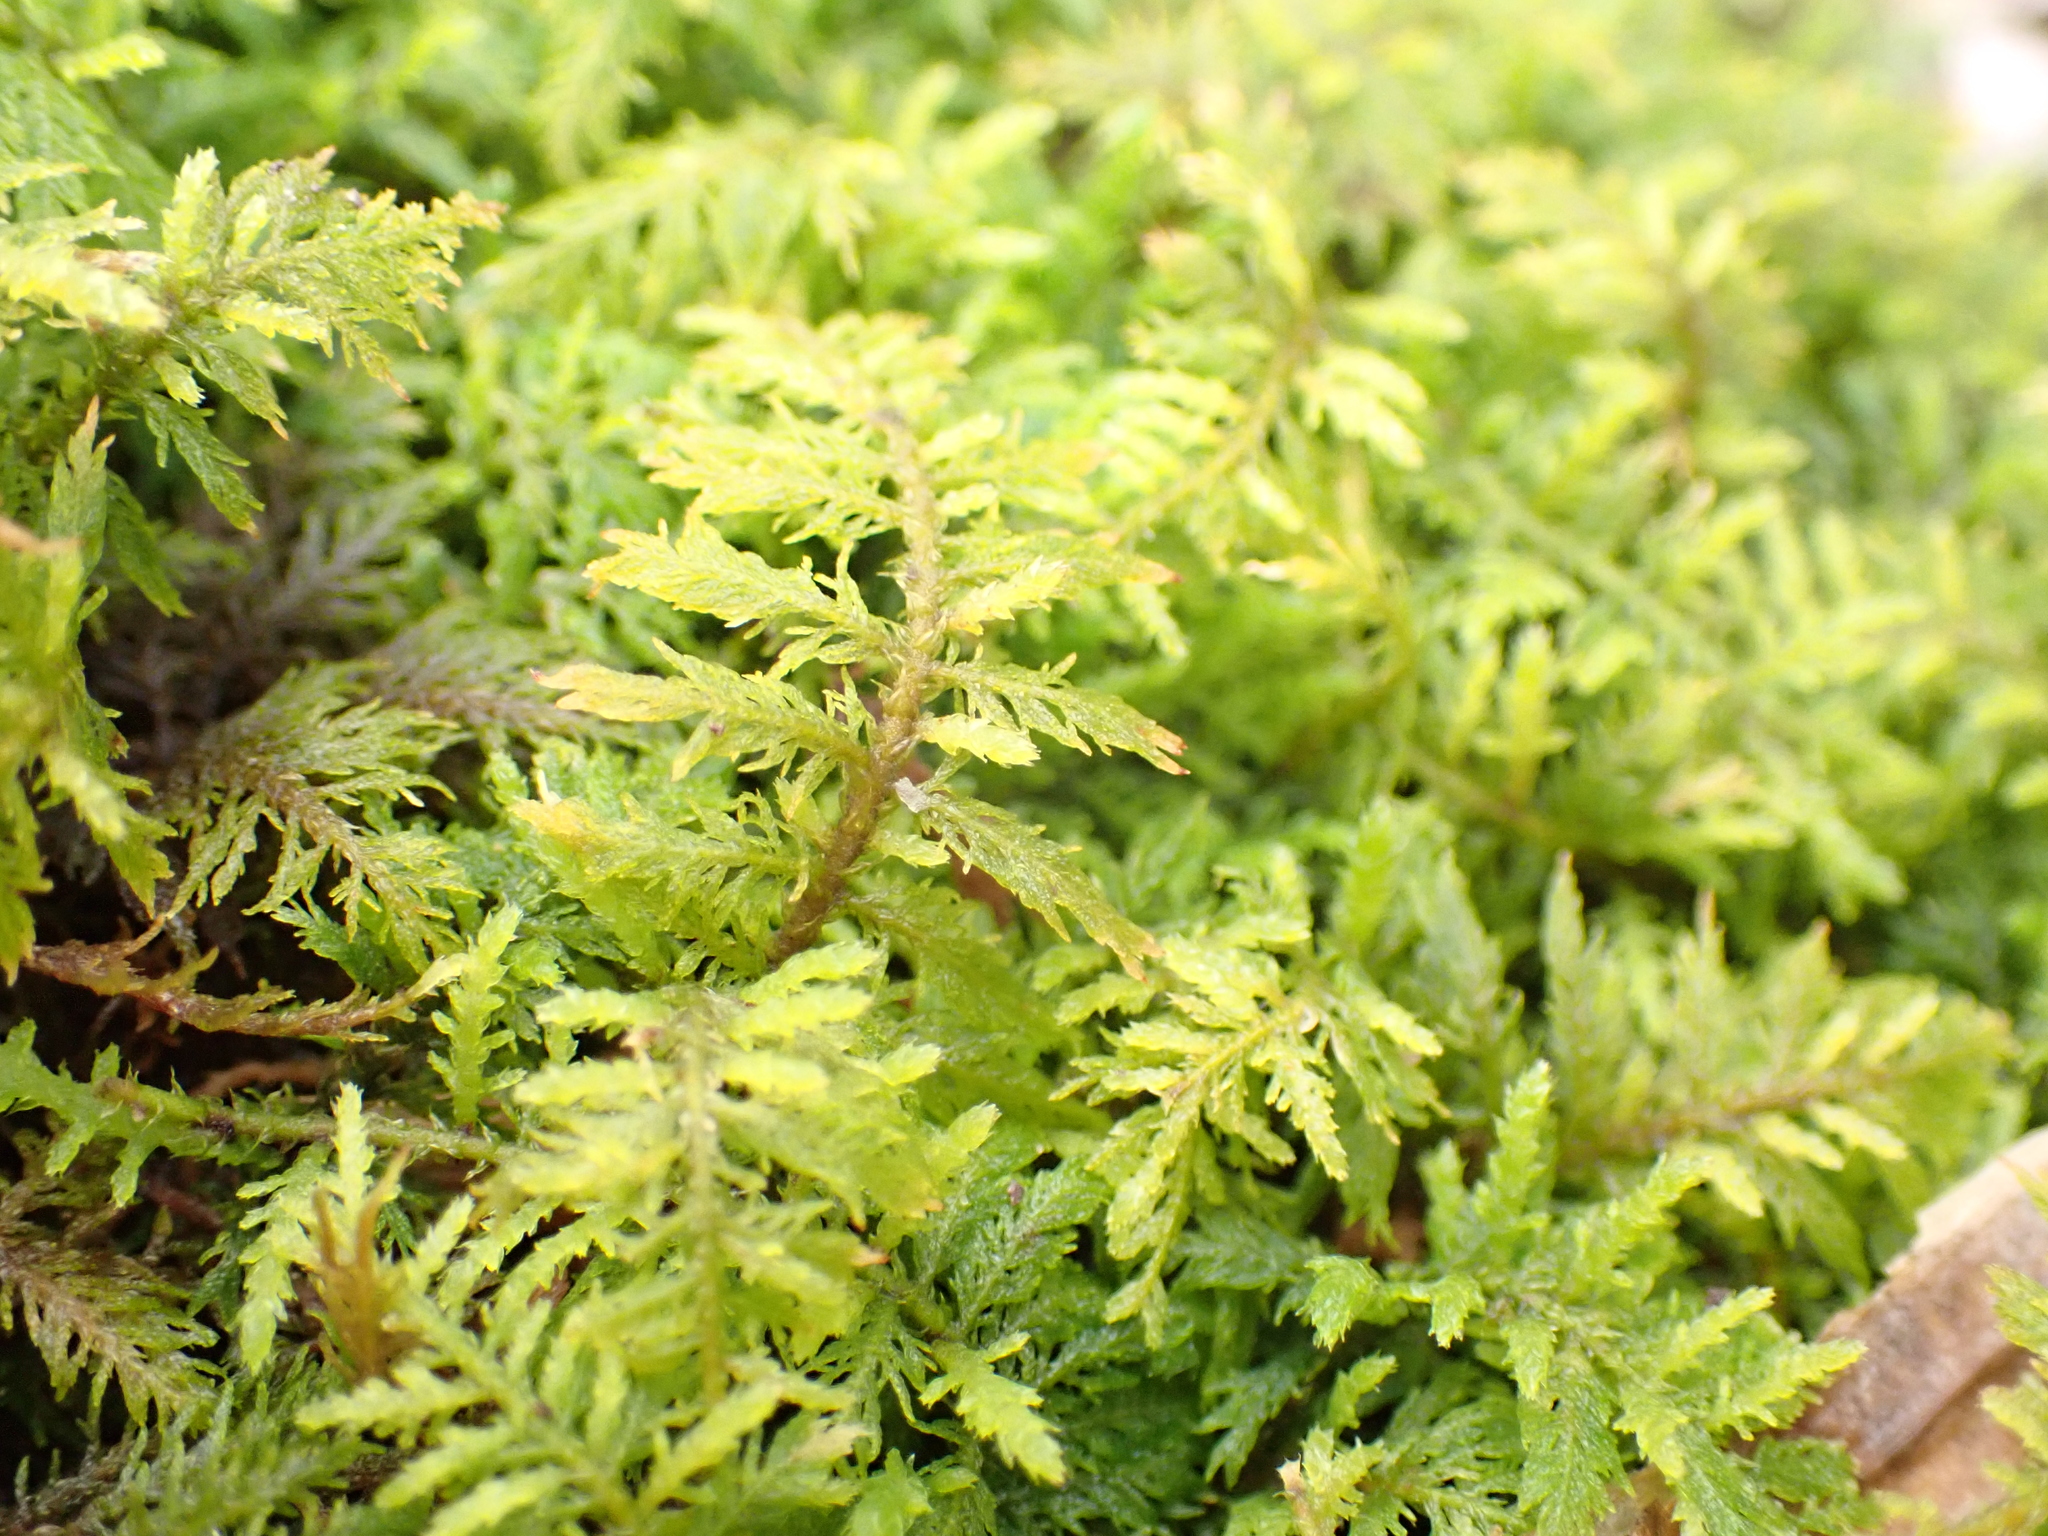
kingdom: Plantae
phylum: Bryophyta
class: Bryopsida
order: Hypnales
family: Thuidiaceae
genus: Thuidium
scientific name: Thuidium delicatulum
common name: Delicate fern moss
